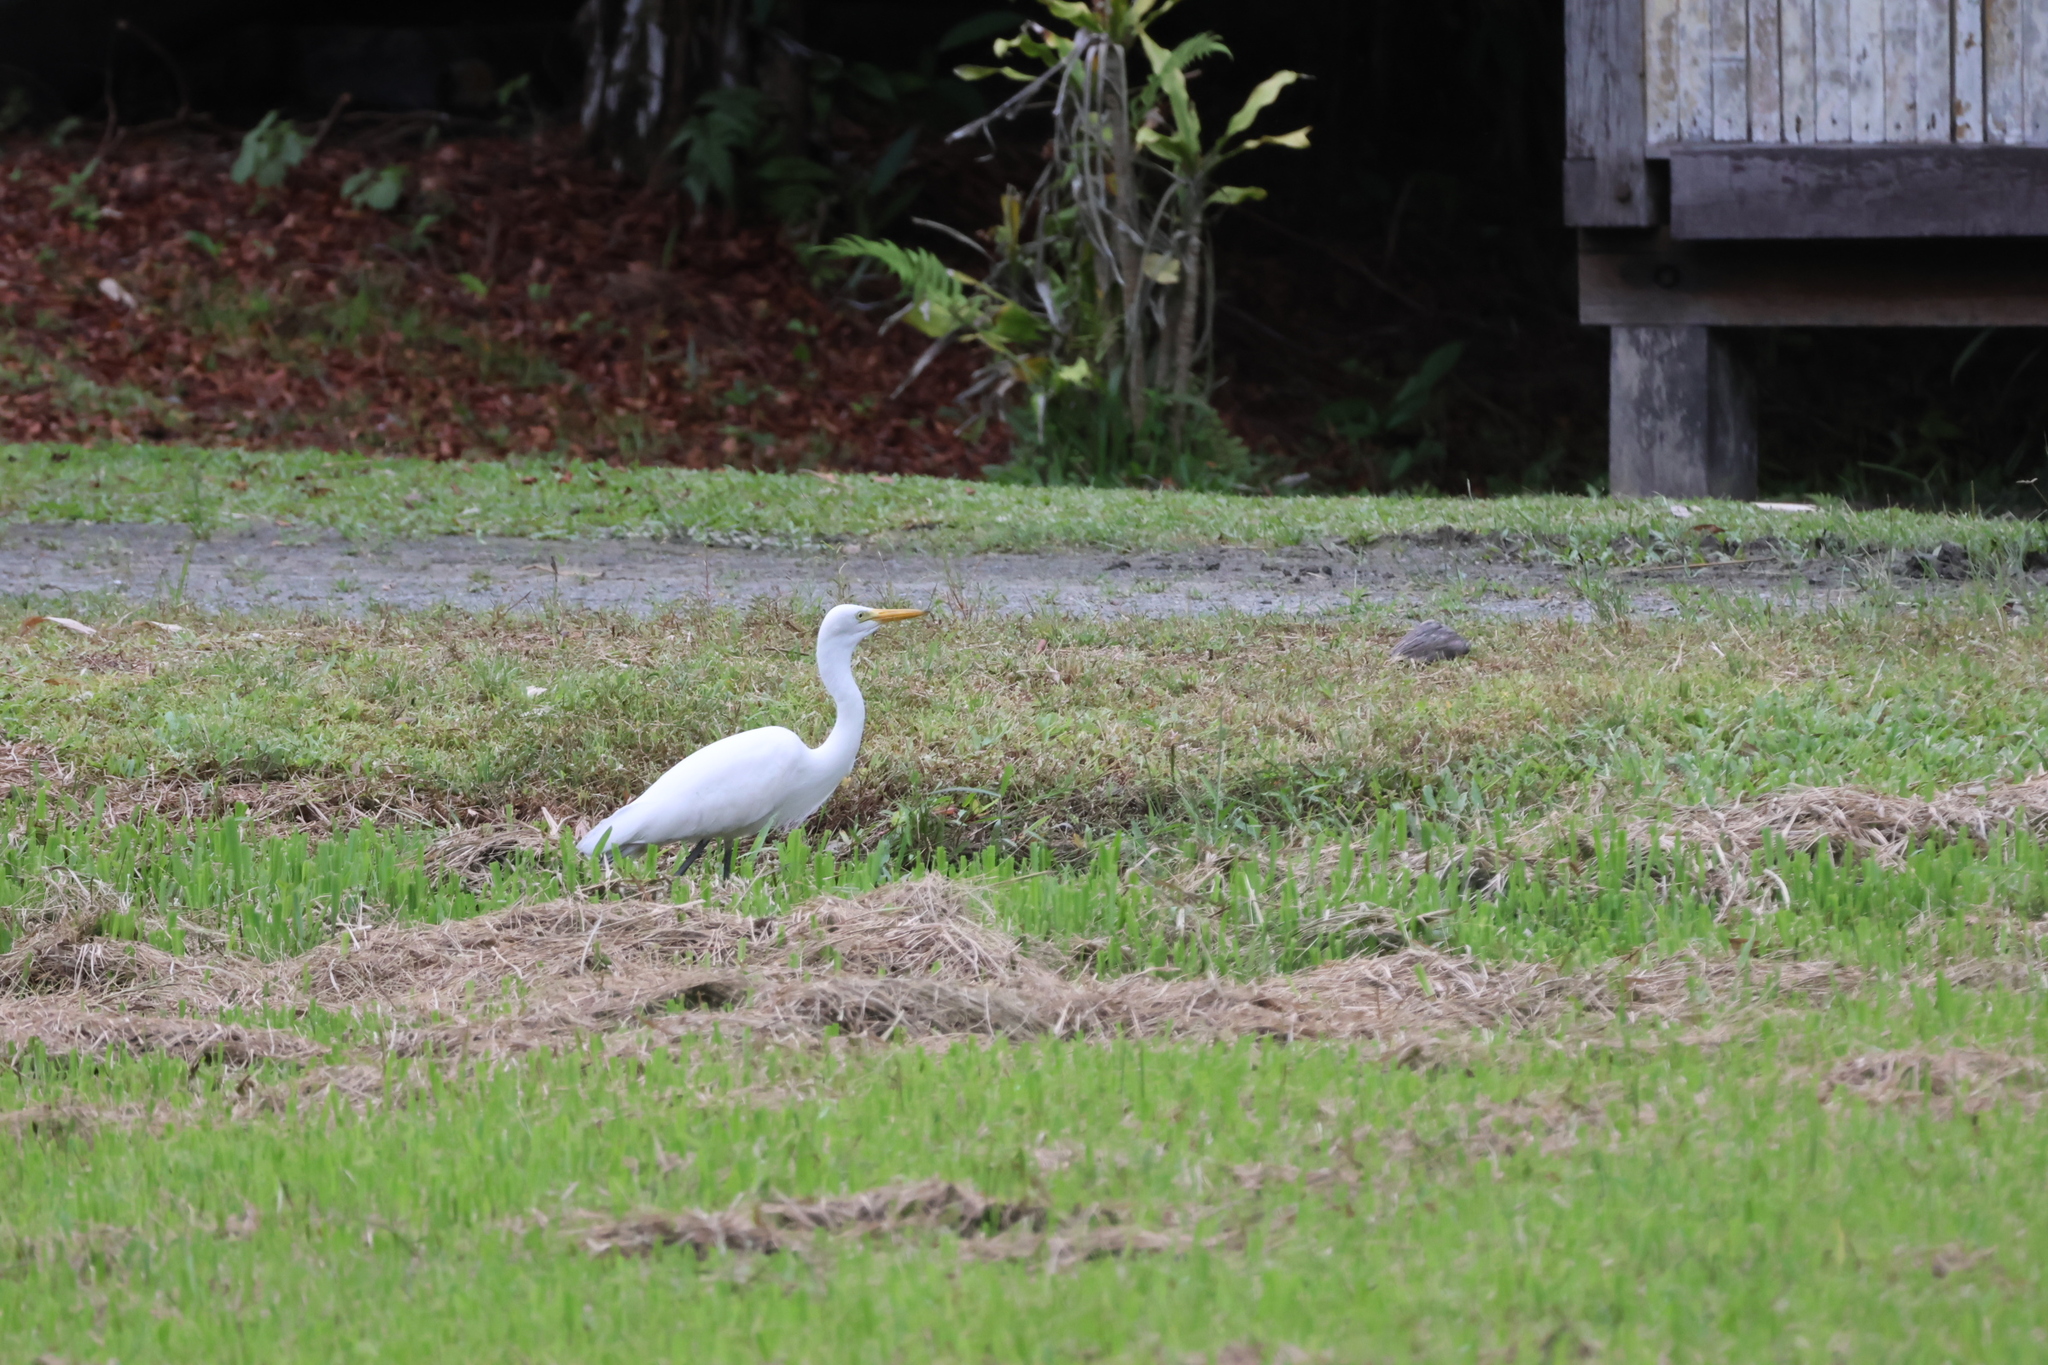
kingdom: Animalia
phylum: Chordata
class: Aves
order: Pelecaniformes
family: Ardeidae
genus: Egretta
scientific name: Egretta intermedia
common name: Intermediate egret
